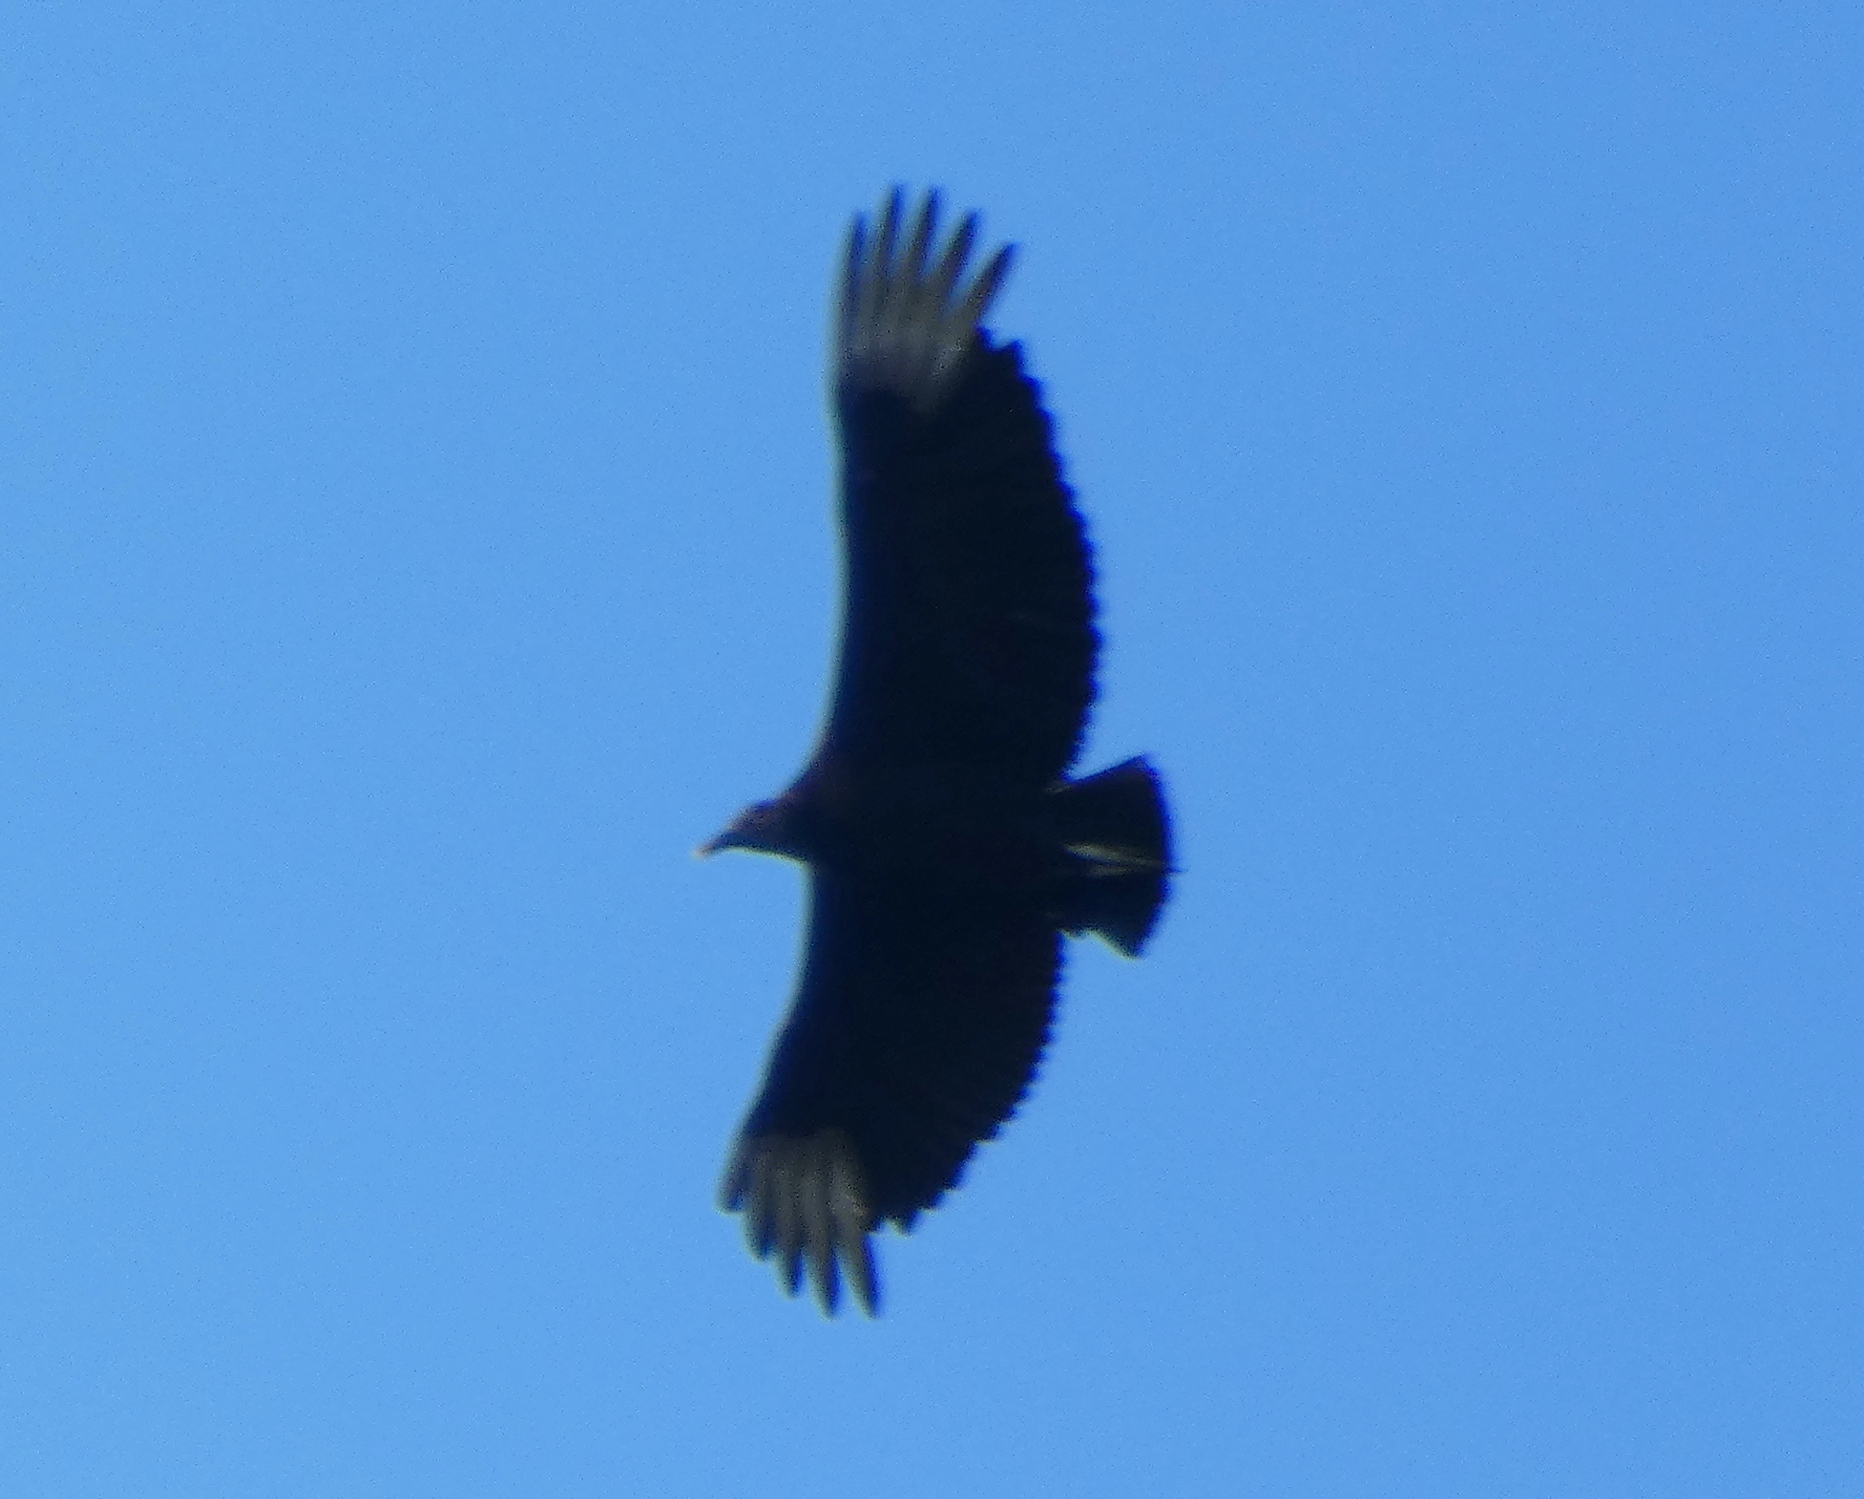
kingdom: Animalia
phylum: Chordata
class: Aves
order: Accipitriformes
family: Cathartidae
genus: Coragyps
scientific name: Coragyps atratus
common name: Black vulture
